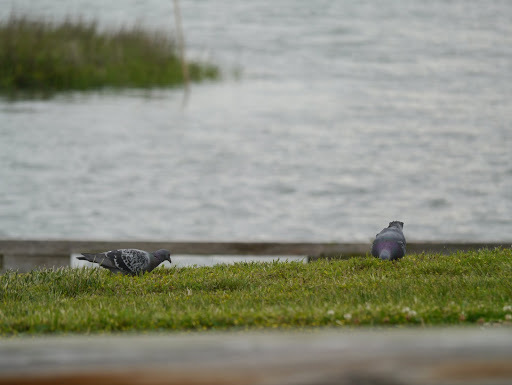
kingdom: Animalia
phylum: Chordata
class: Aves
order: Columbiformes
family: Columbidae
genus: Columba
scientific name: Columba livia
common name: Rock pigeon
